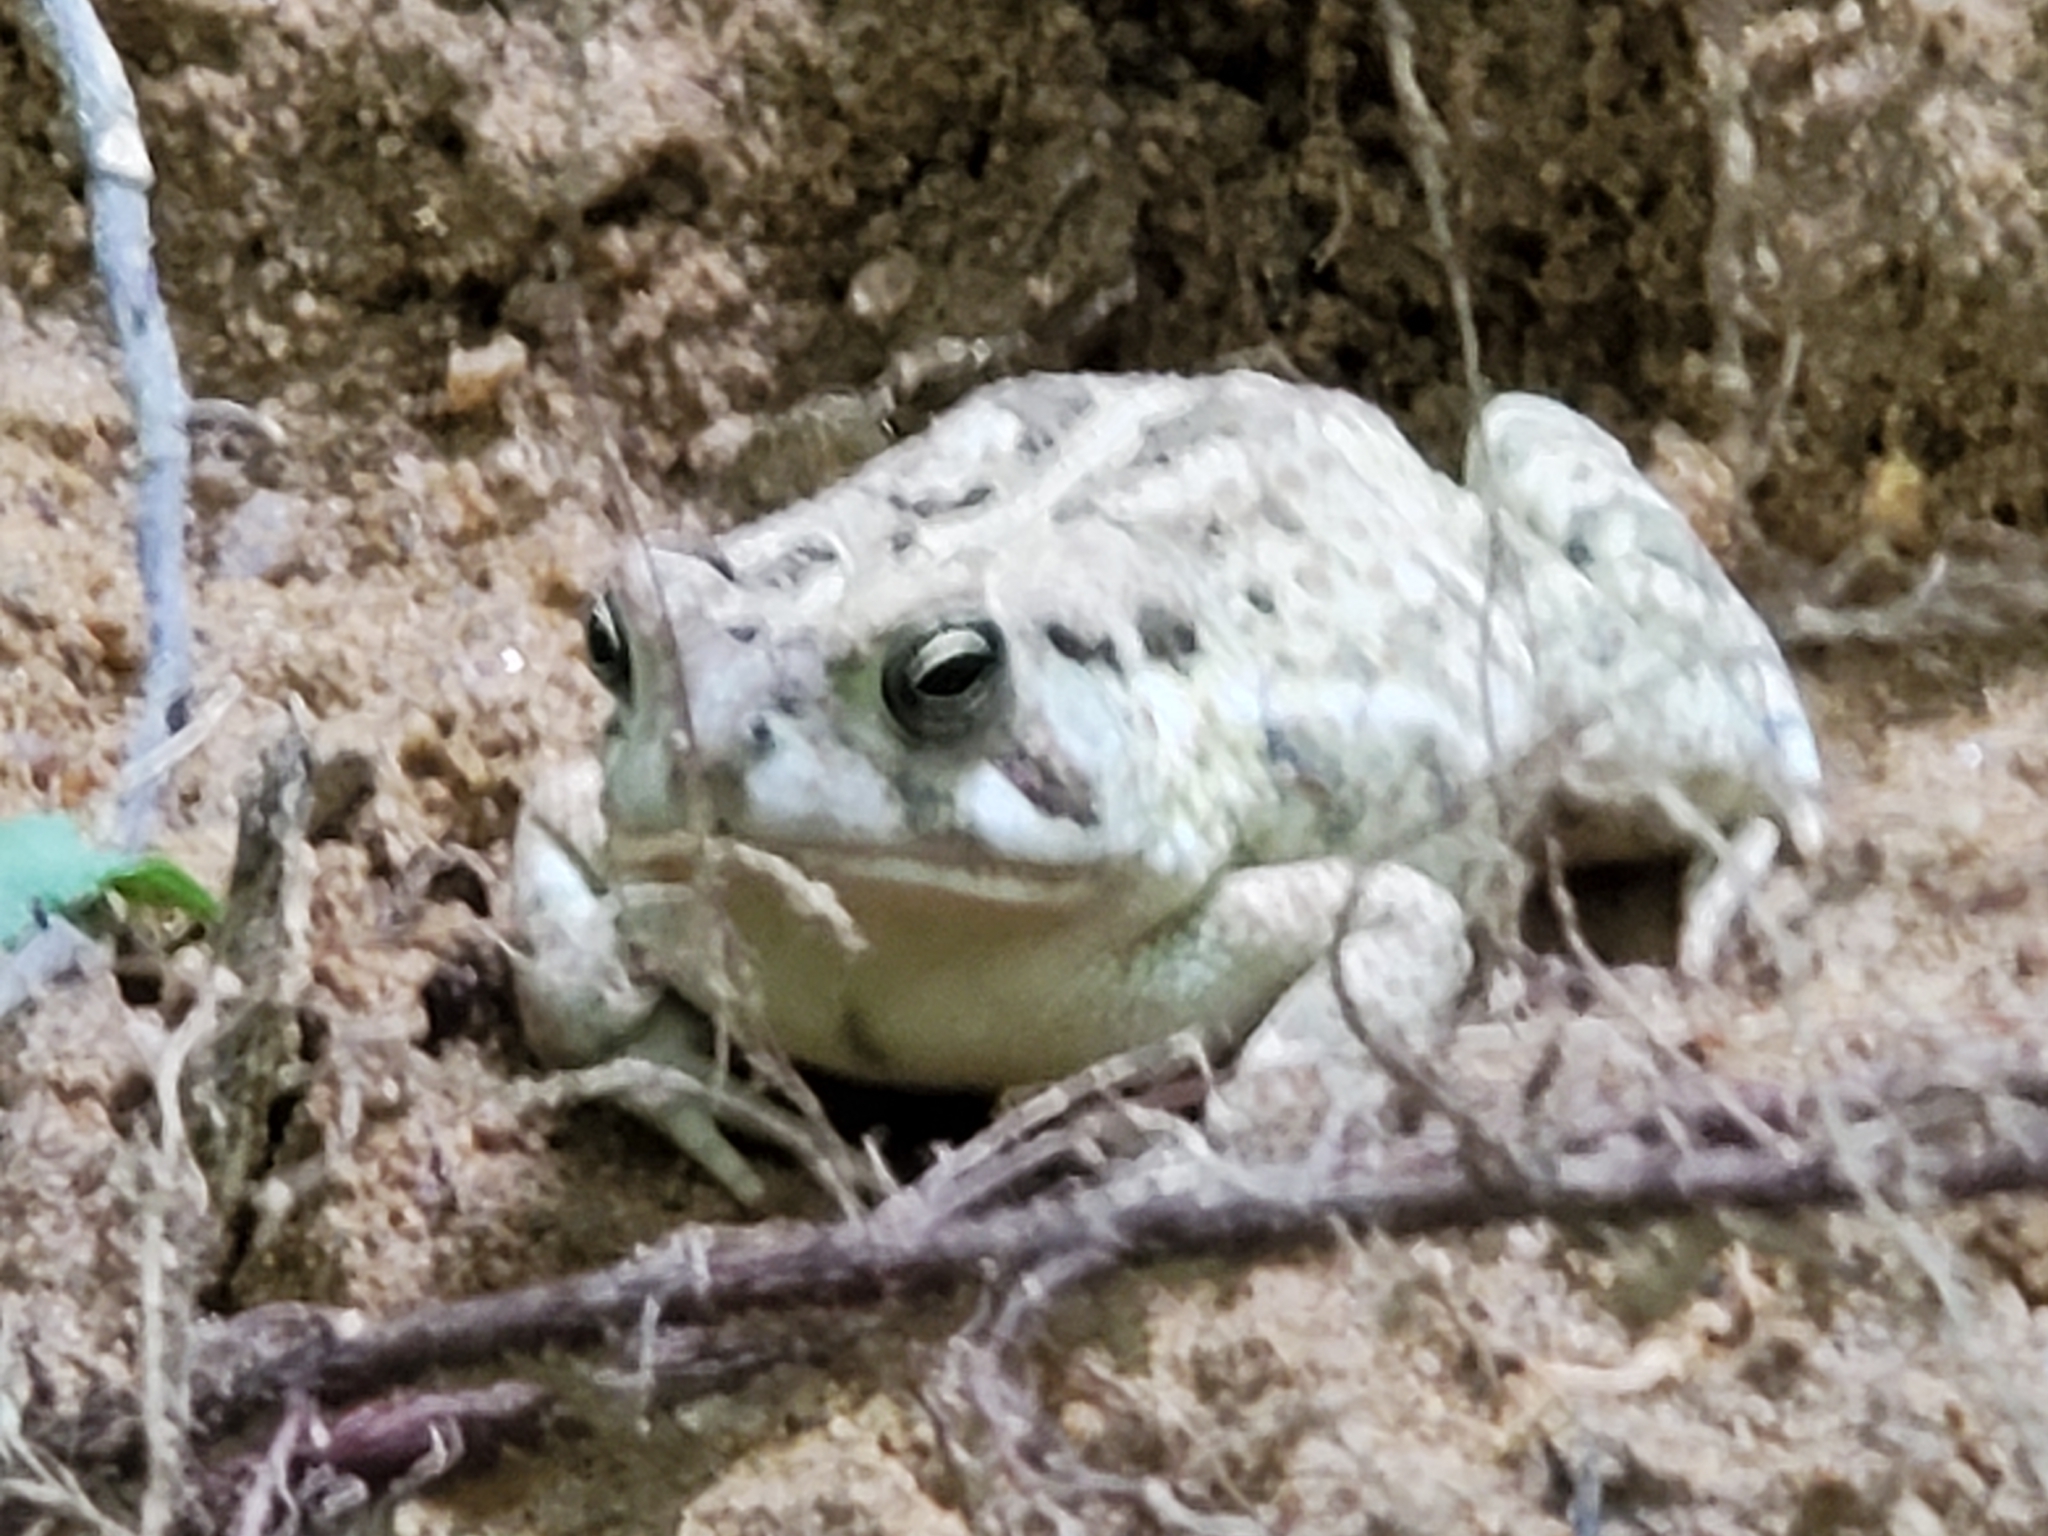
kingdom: Animalia
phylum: Chordata
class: Amphibia
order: Anura
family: Bufonidae
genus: Anaxyrus
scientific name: Anaxyrus fowleri
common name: Fowler's toad
